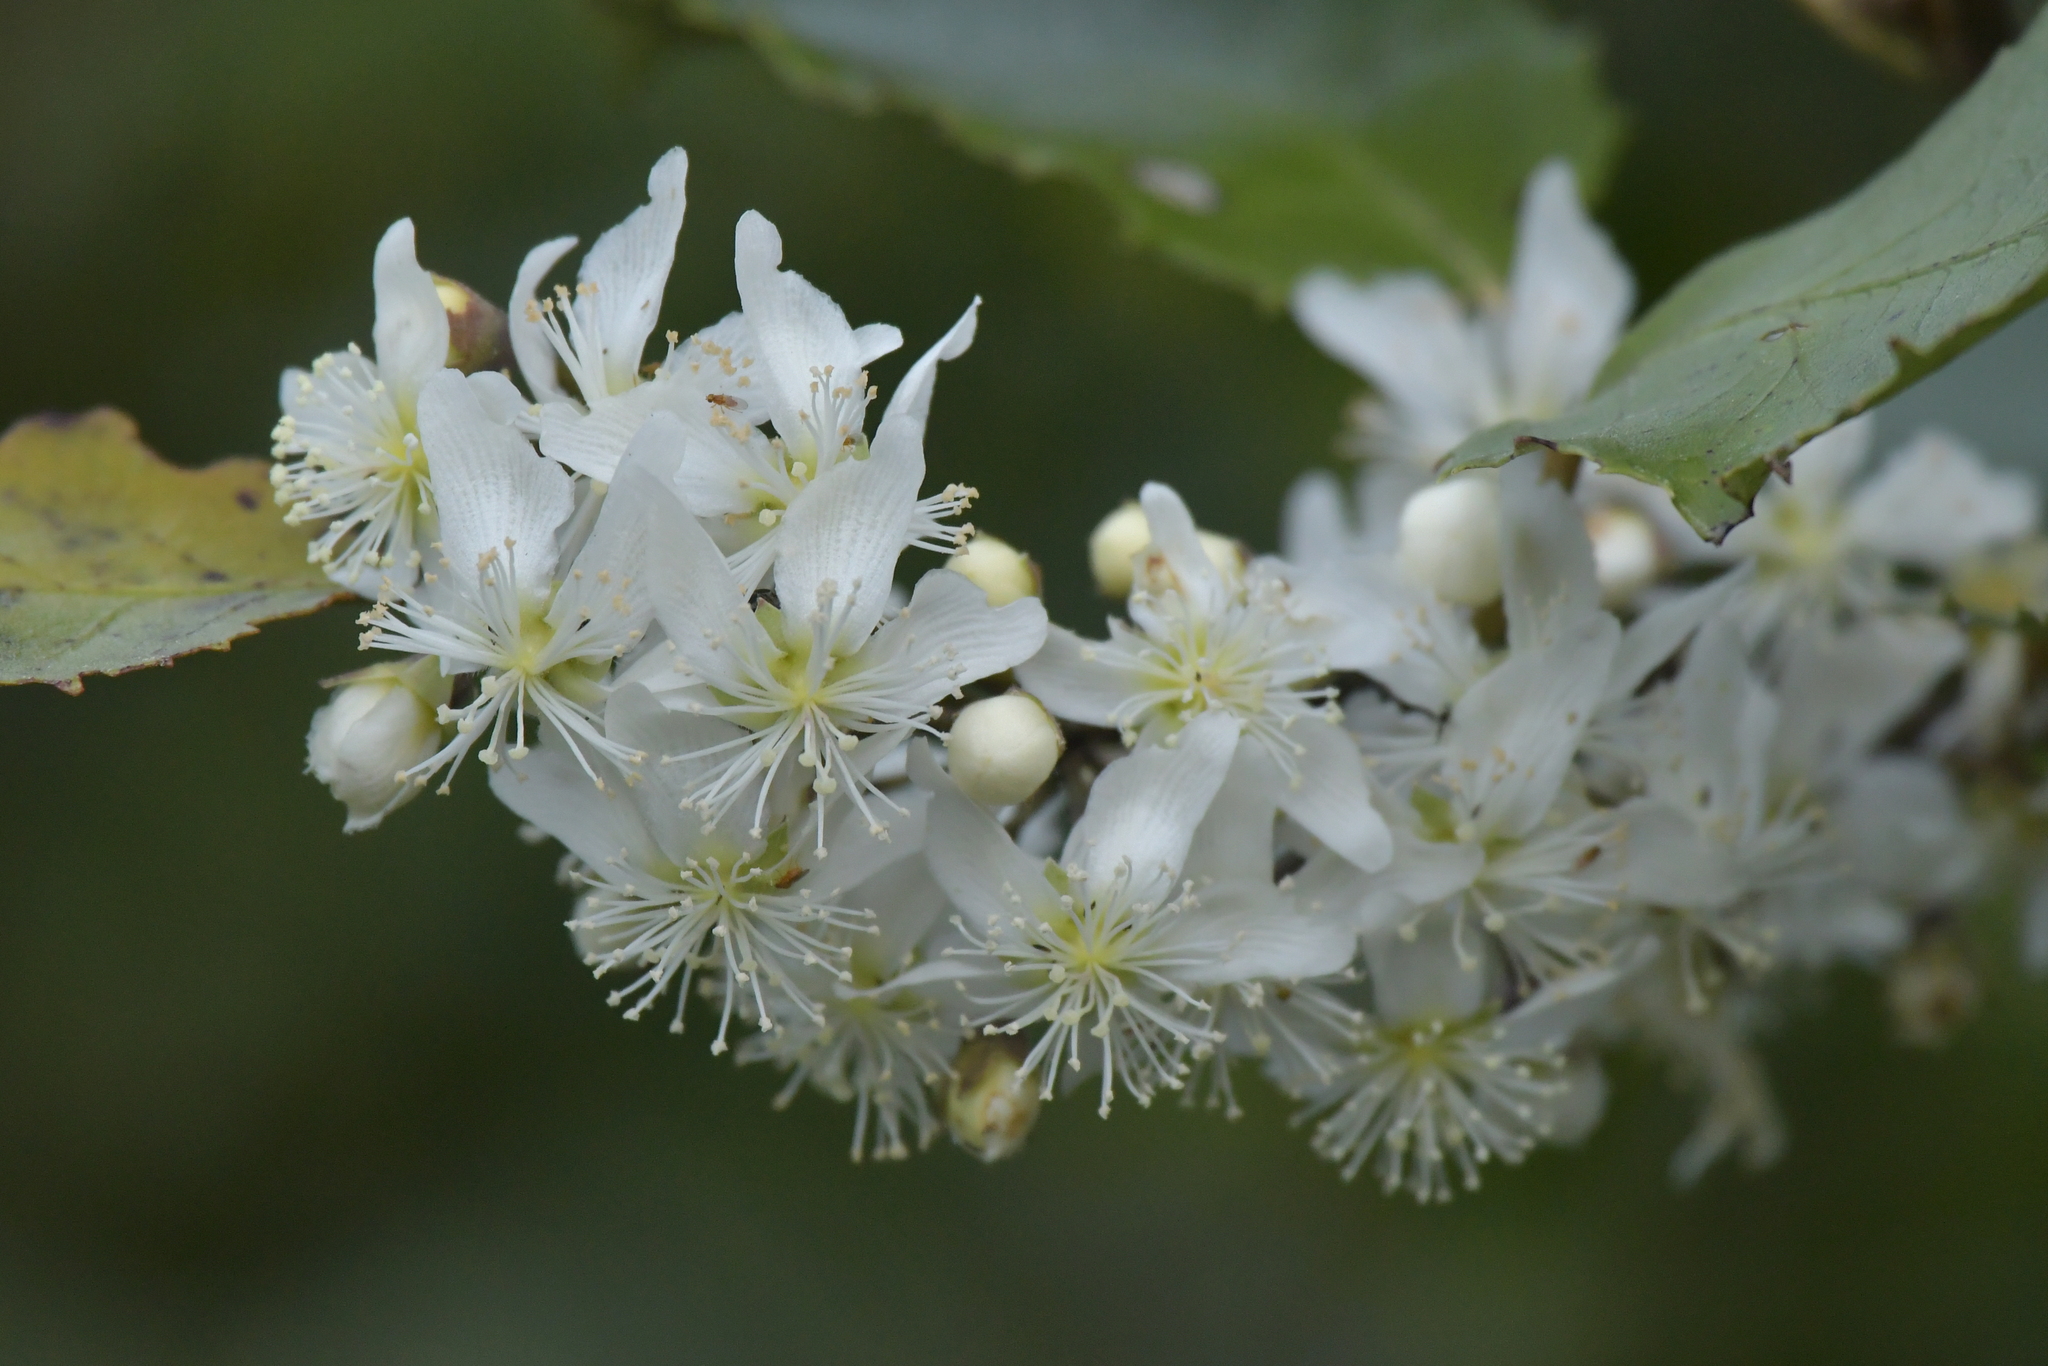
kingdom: Plantae
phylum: Tracheophyta
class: Magnoliopsida
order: Malvales
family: Malvaceae
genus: Hoheria
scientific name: Hoheria populnea
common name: Lacebark
